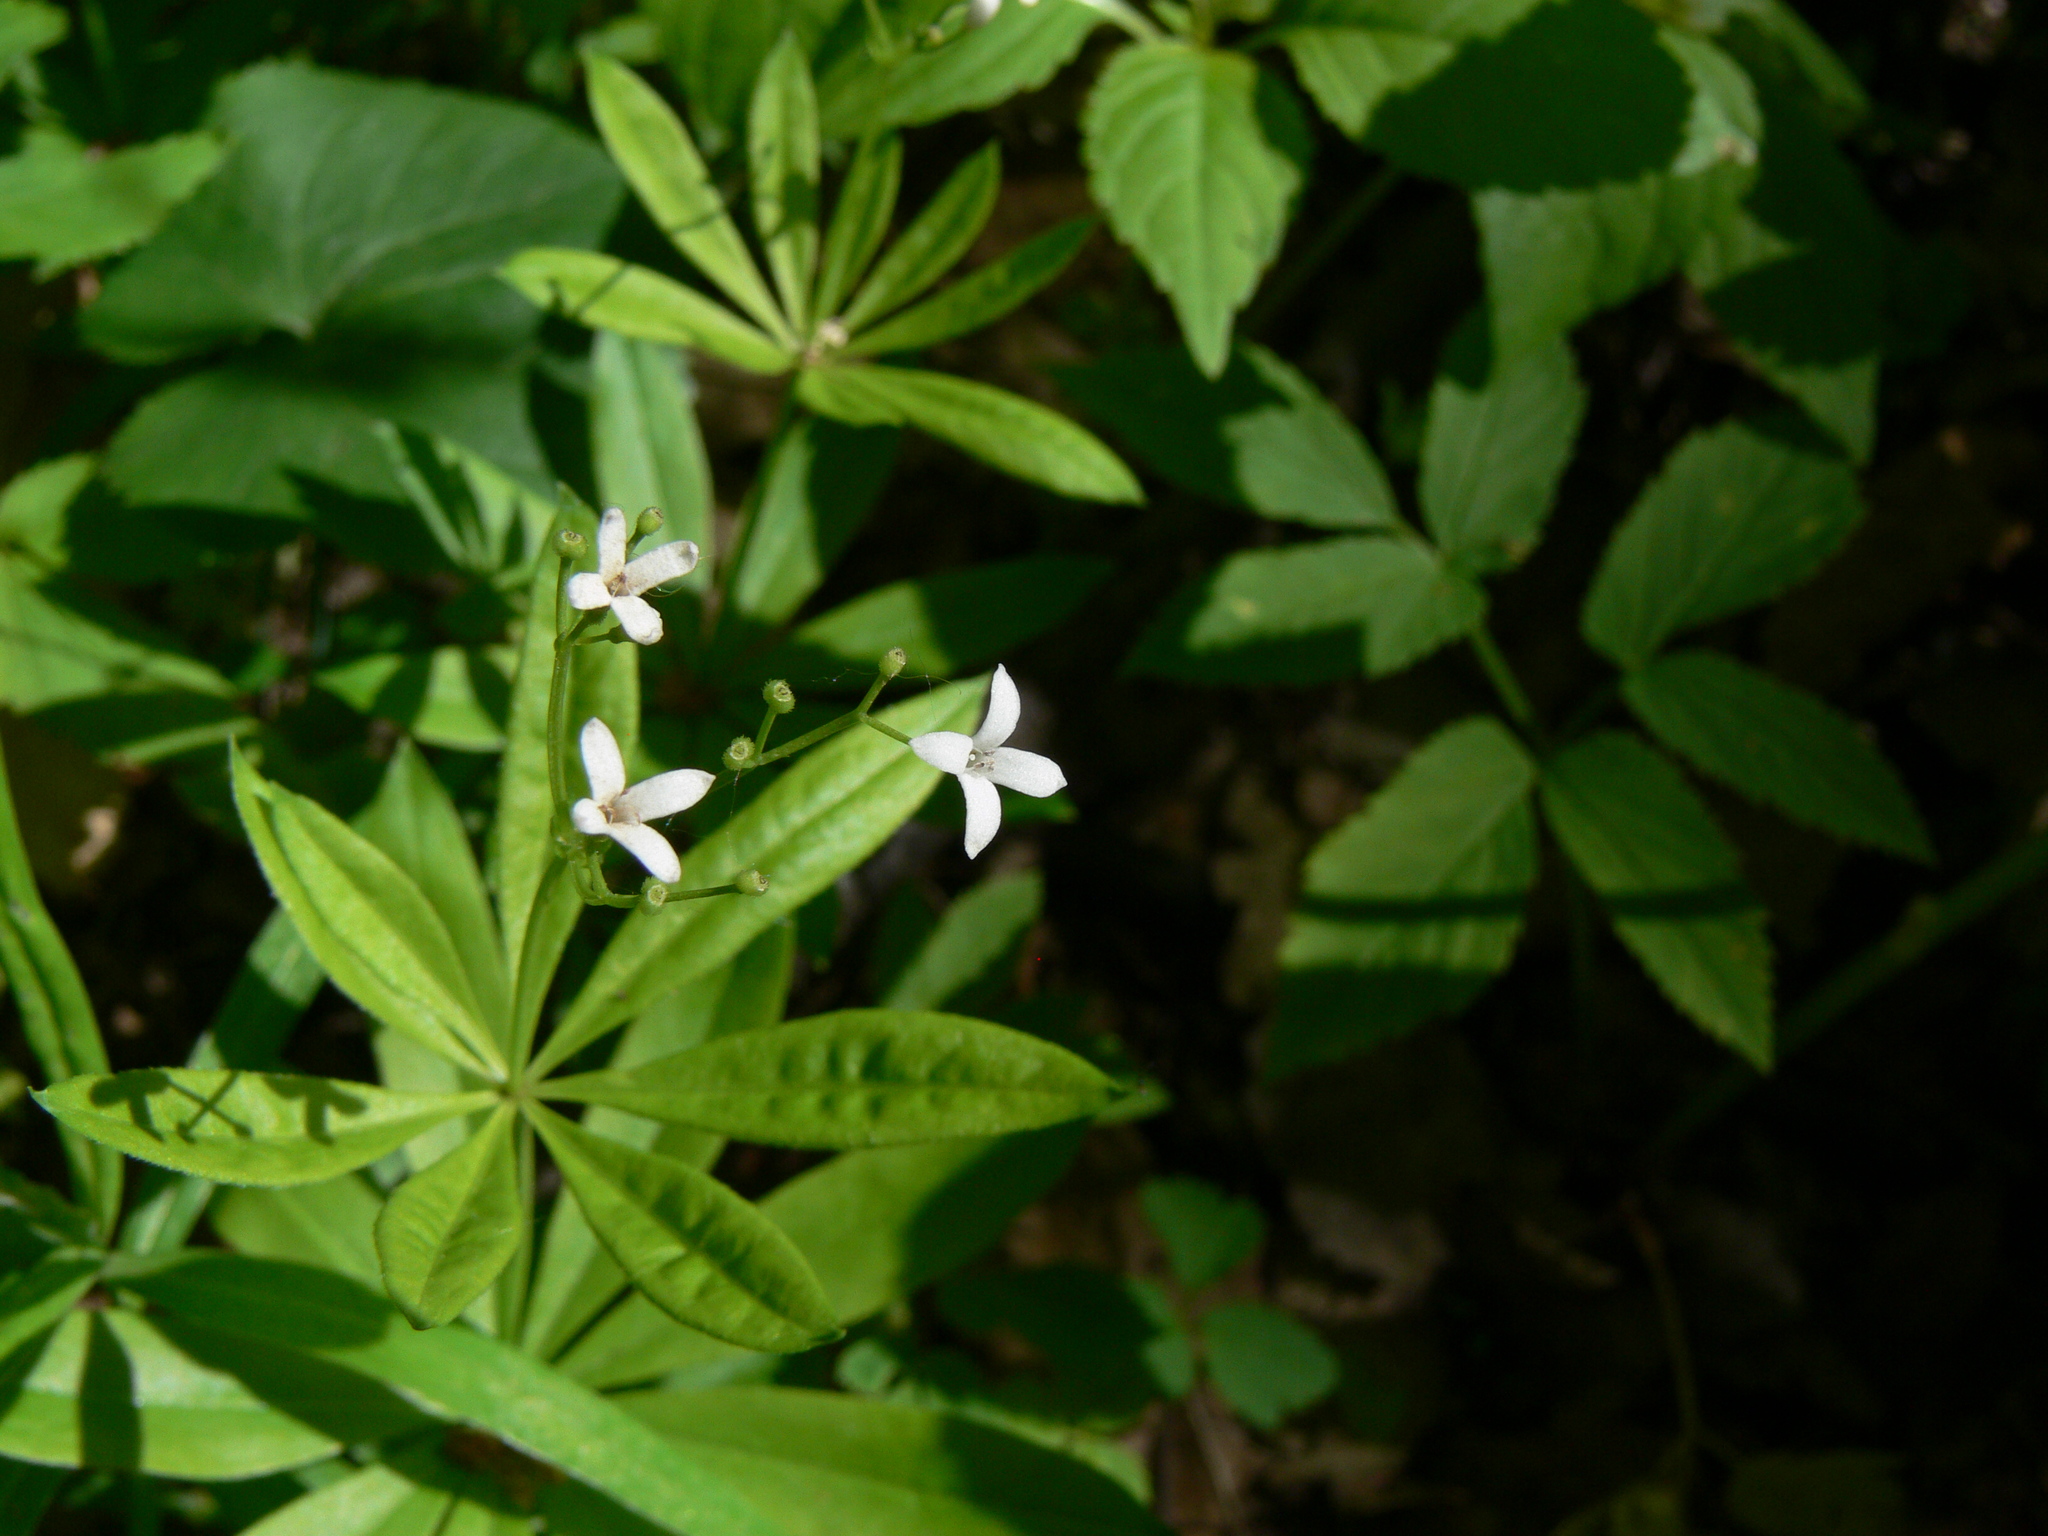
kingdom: Plantae
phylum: Tracheophyta
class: Magnoliopsida
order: Gentianales
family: Rubiaceae
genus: Galium
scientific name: Galium odoratum
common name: Sweet woodruff
